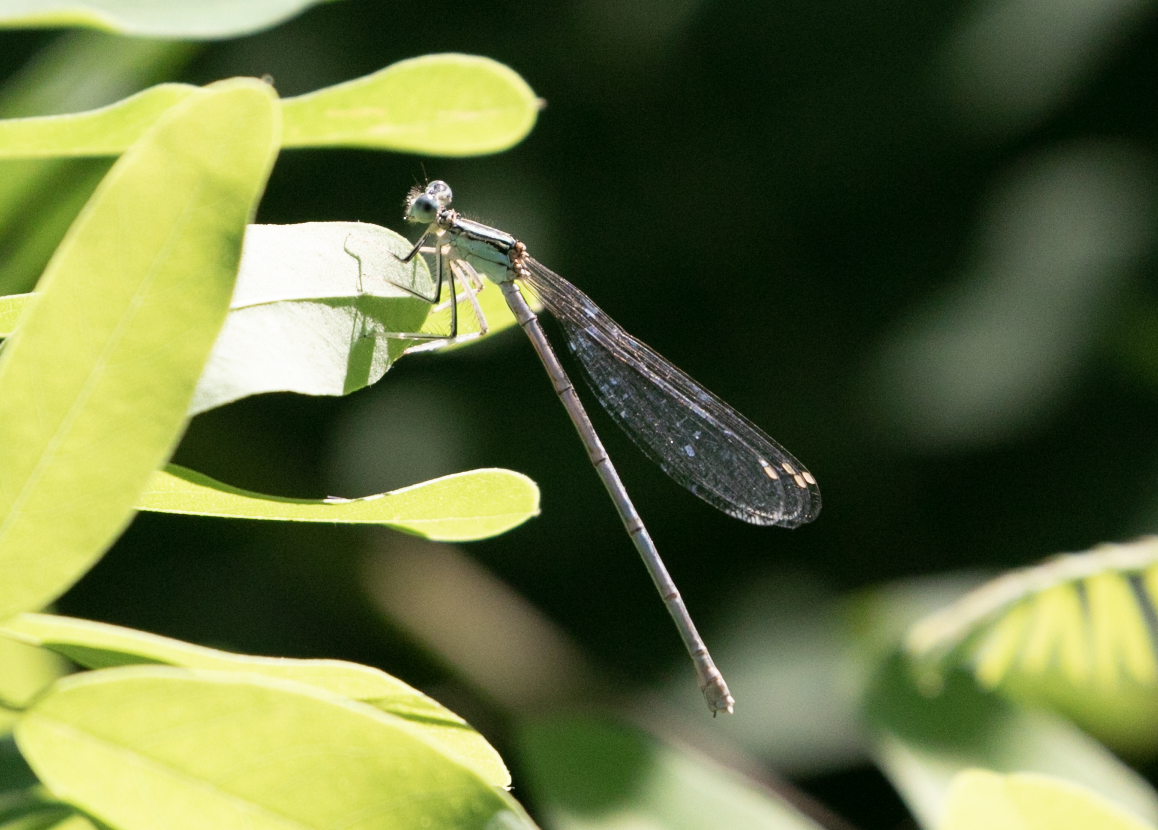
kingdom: Animalia
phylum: Arthropoda
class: Insecta
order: Odonata
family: Platycnemididae
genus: Platycnemis
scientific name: Platycnemis pennipes
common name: White-legged damselfly
